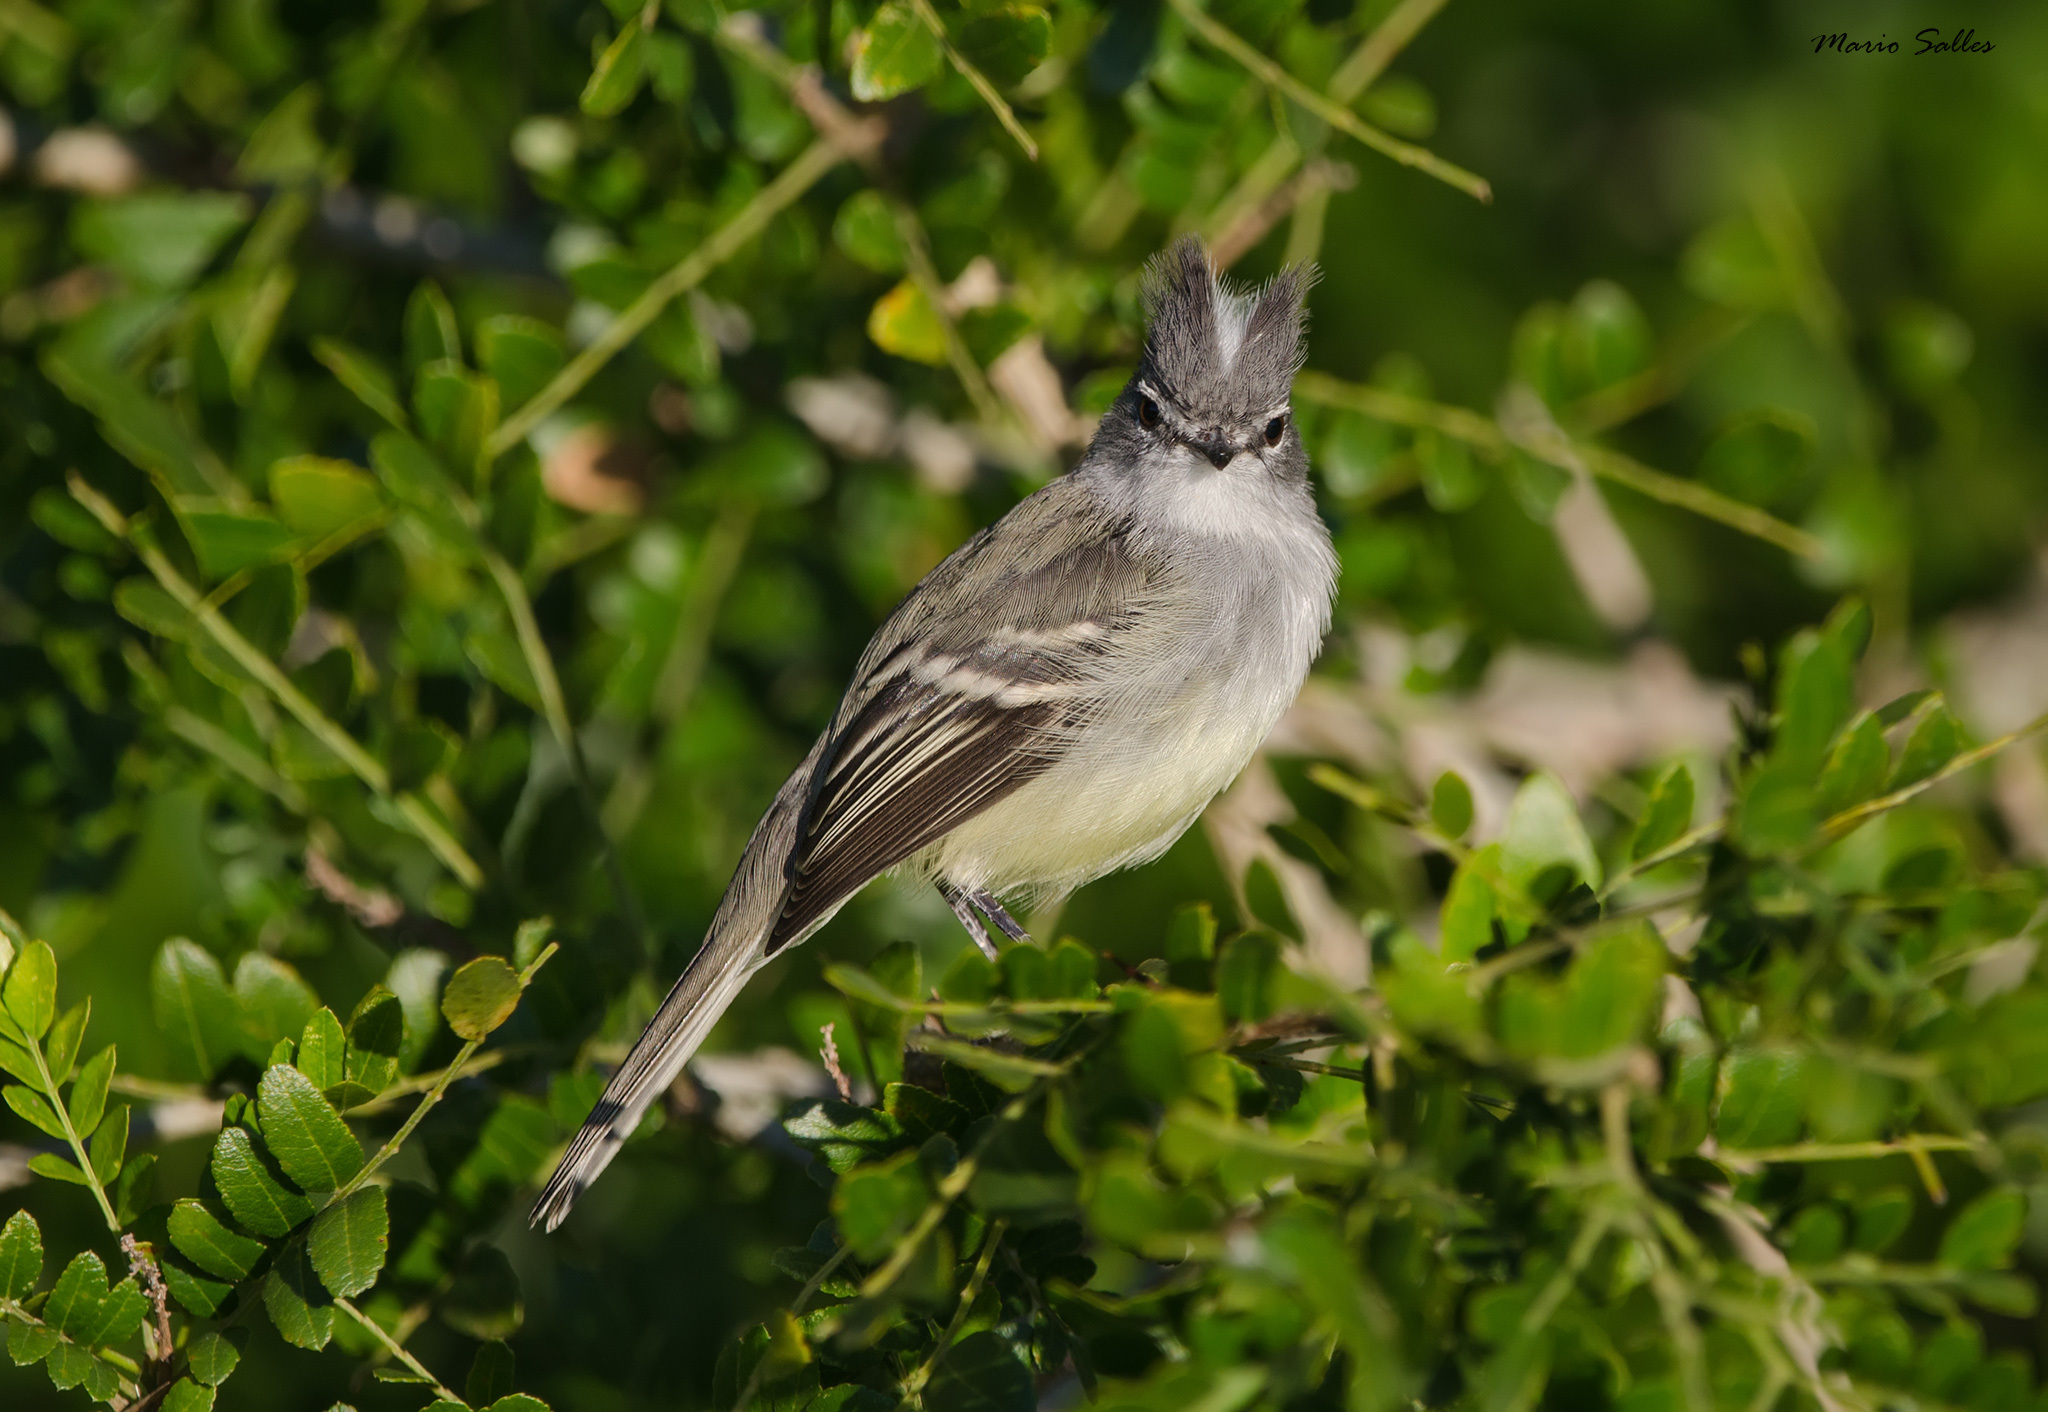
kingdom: Animalia
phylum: Chordata
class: Aves
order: Passeriformes
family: Tyrannidae
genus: Serpophaga
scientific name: Serpophaga subcristata
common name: White-crested tyrannulet
